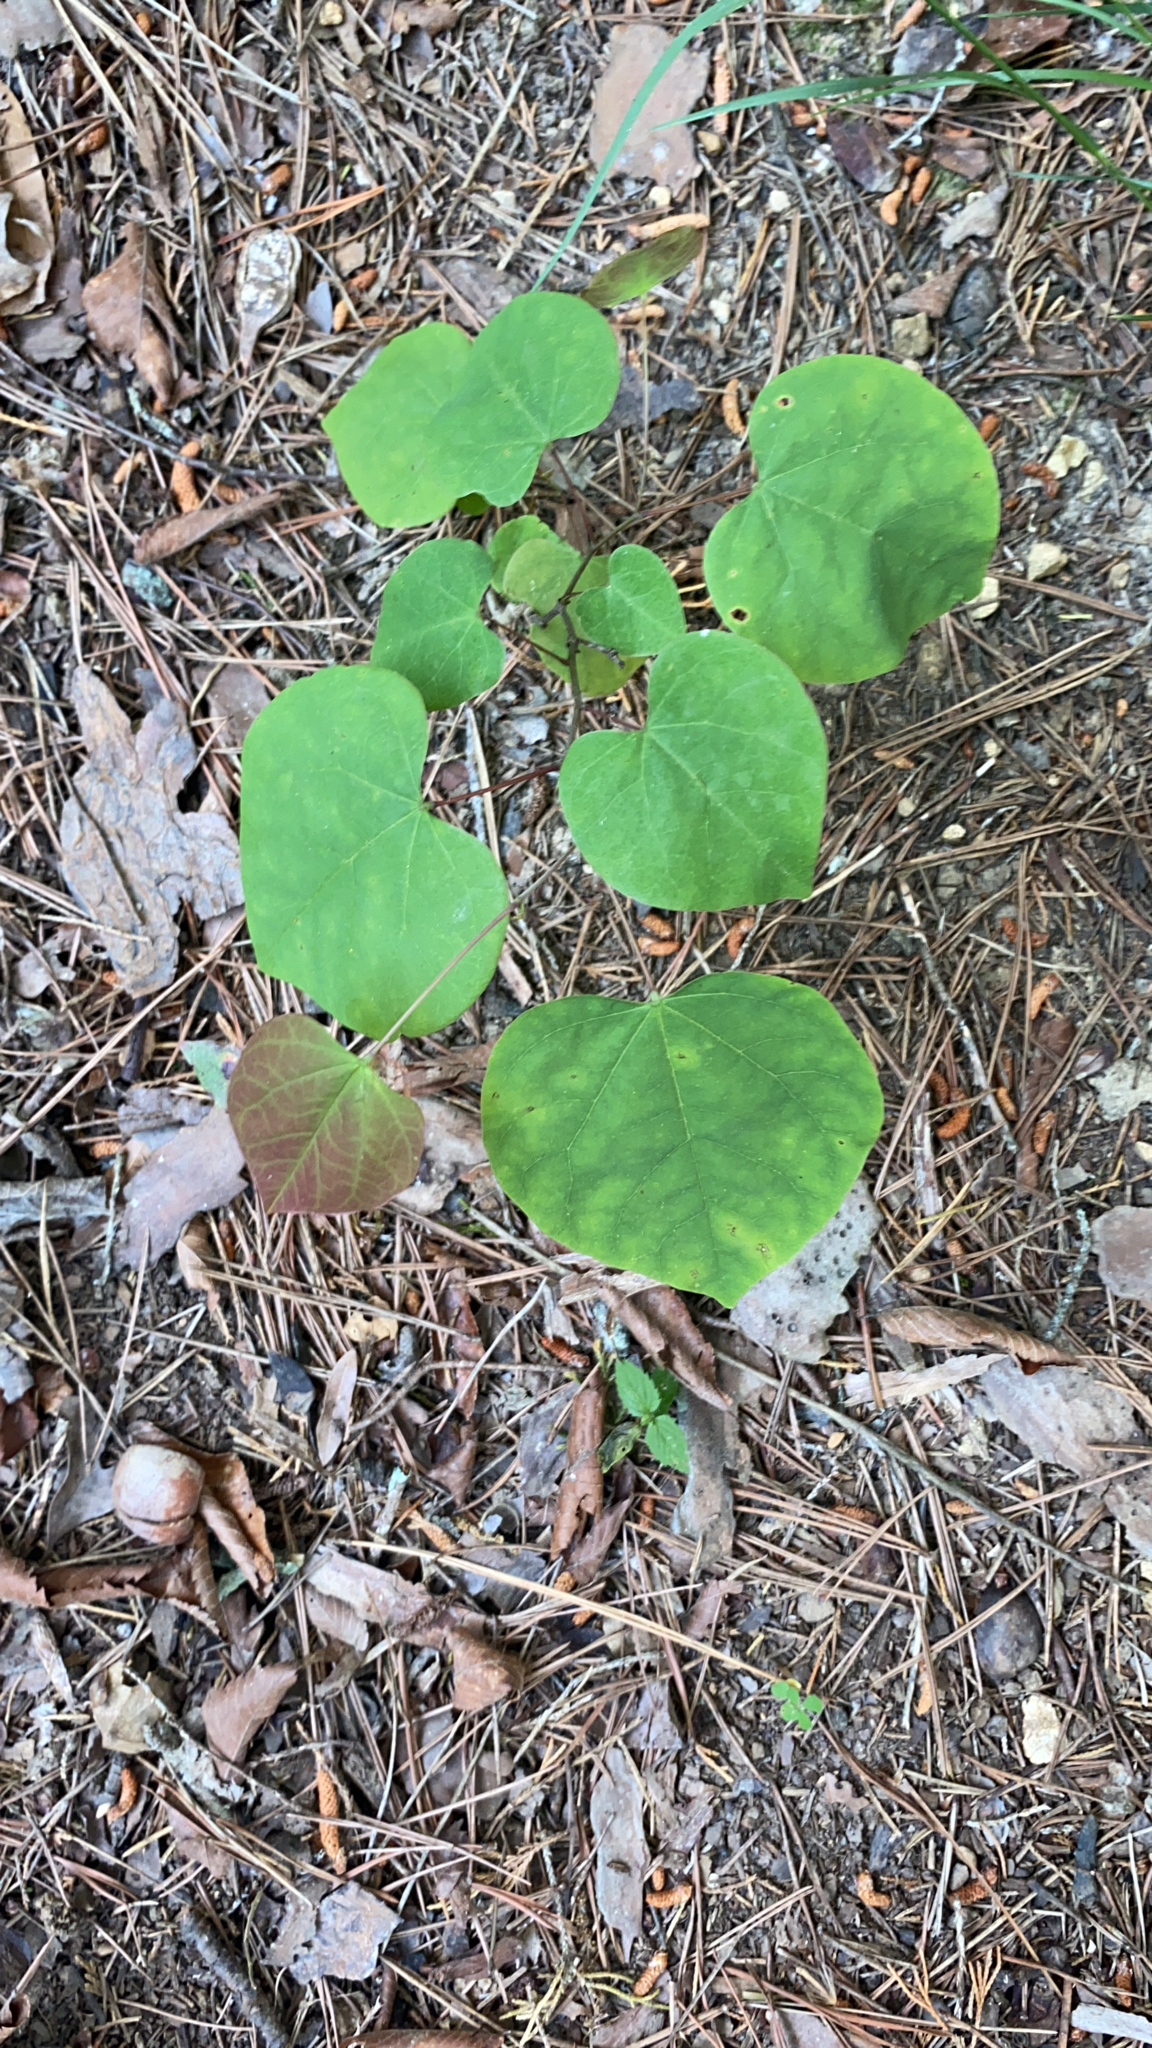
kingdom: Plantae
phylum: Tracheophyta
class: Magnoliopsida
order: Fabales
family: Fabaceae
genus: Cercis
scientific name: Cercis canadensis
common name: Eastern redbud
